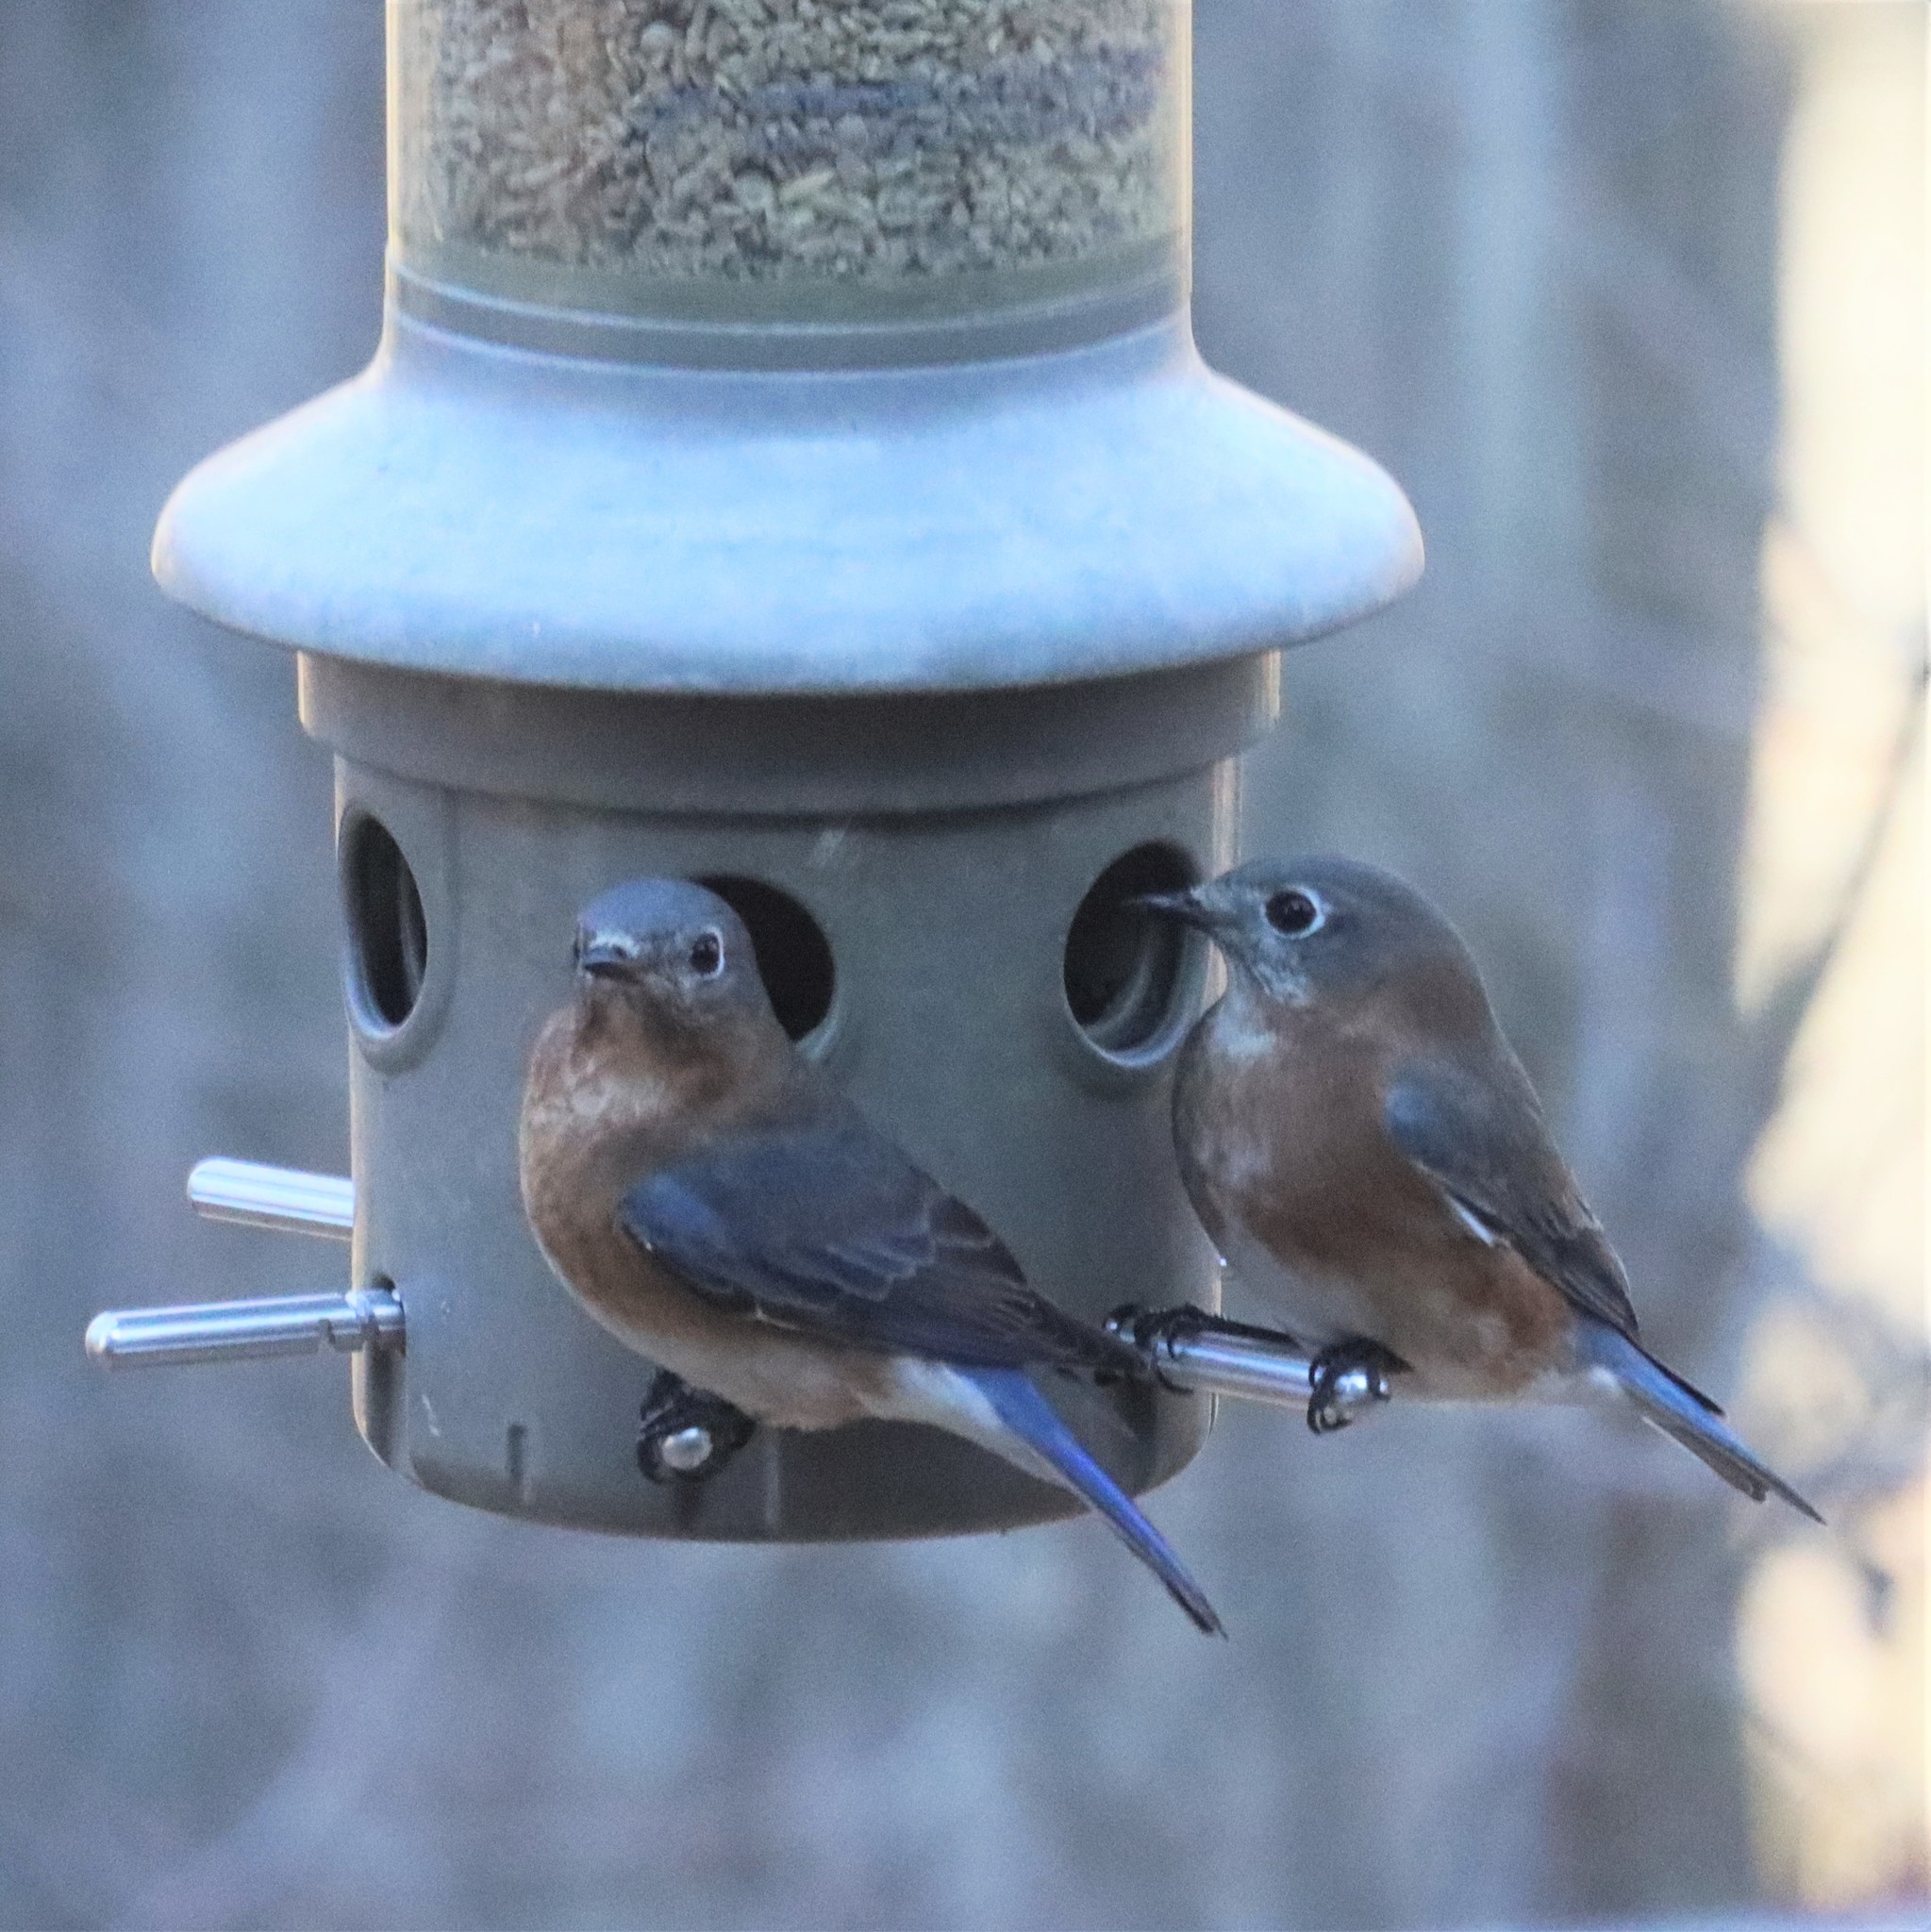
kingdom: Animalia
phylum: Chordata
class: Aves
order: Passeriformes
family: Turdidae
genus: Sialia
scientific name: Sialia sialis
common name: Eastern bluebird
